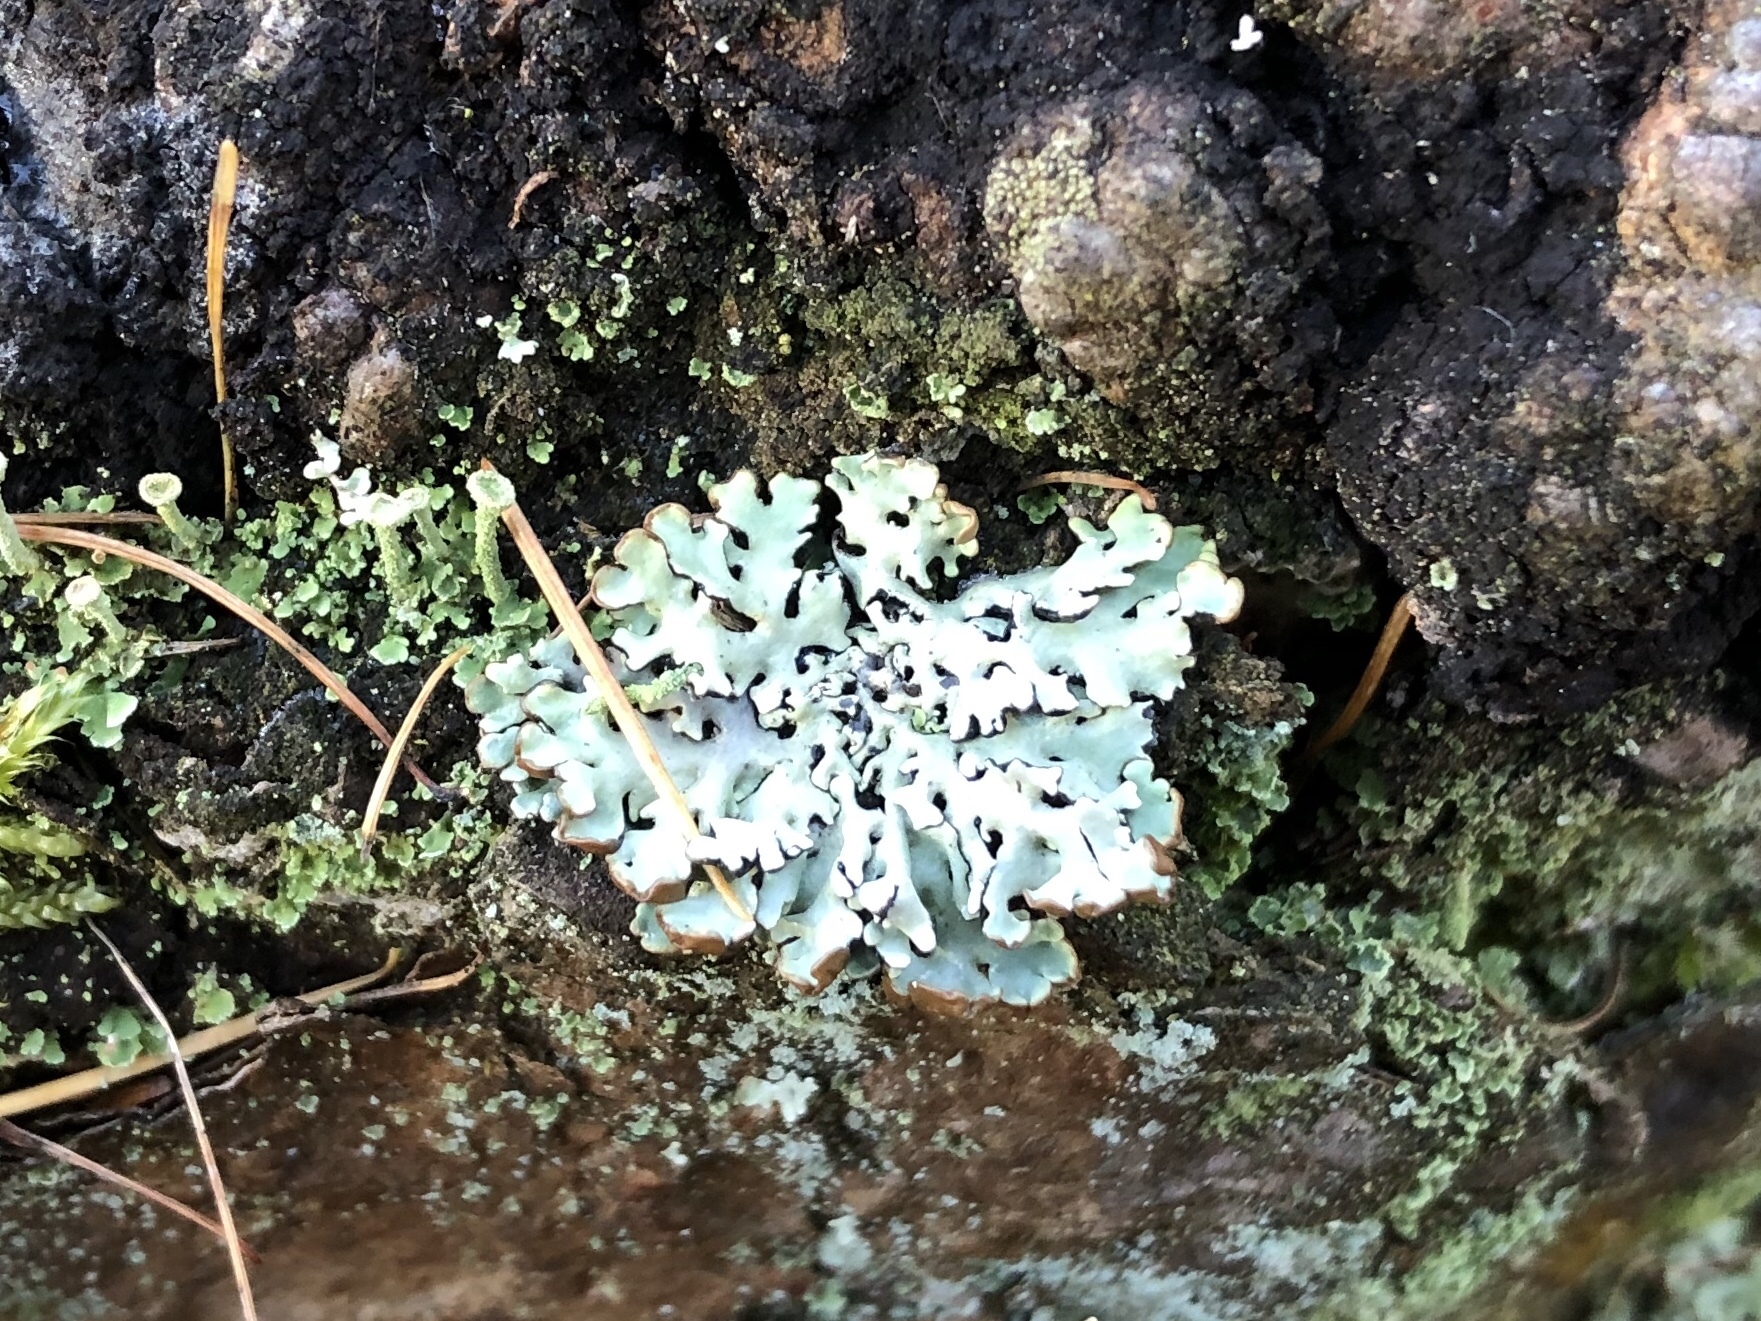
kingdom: Fungi
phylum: Ascomycota
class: Lecanoromycetes
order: Lecanorales
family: Parmeliaceae
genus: Hypogymnia
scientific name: Hypogymnia physodes
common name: Dark crottle
